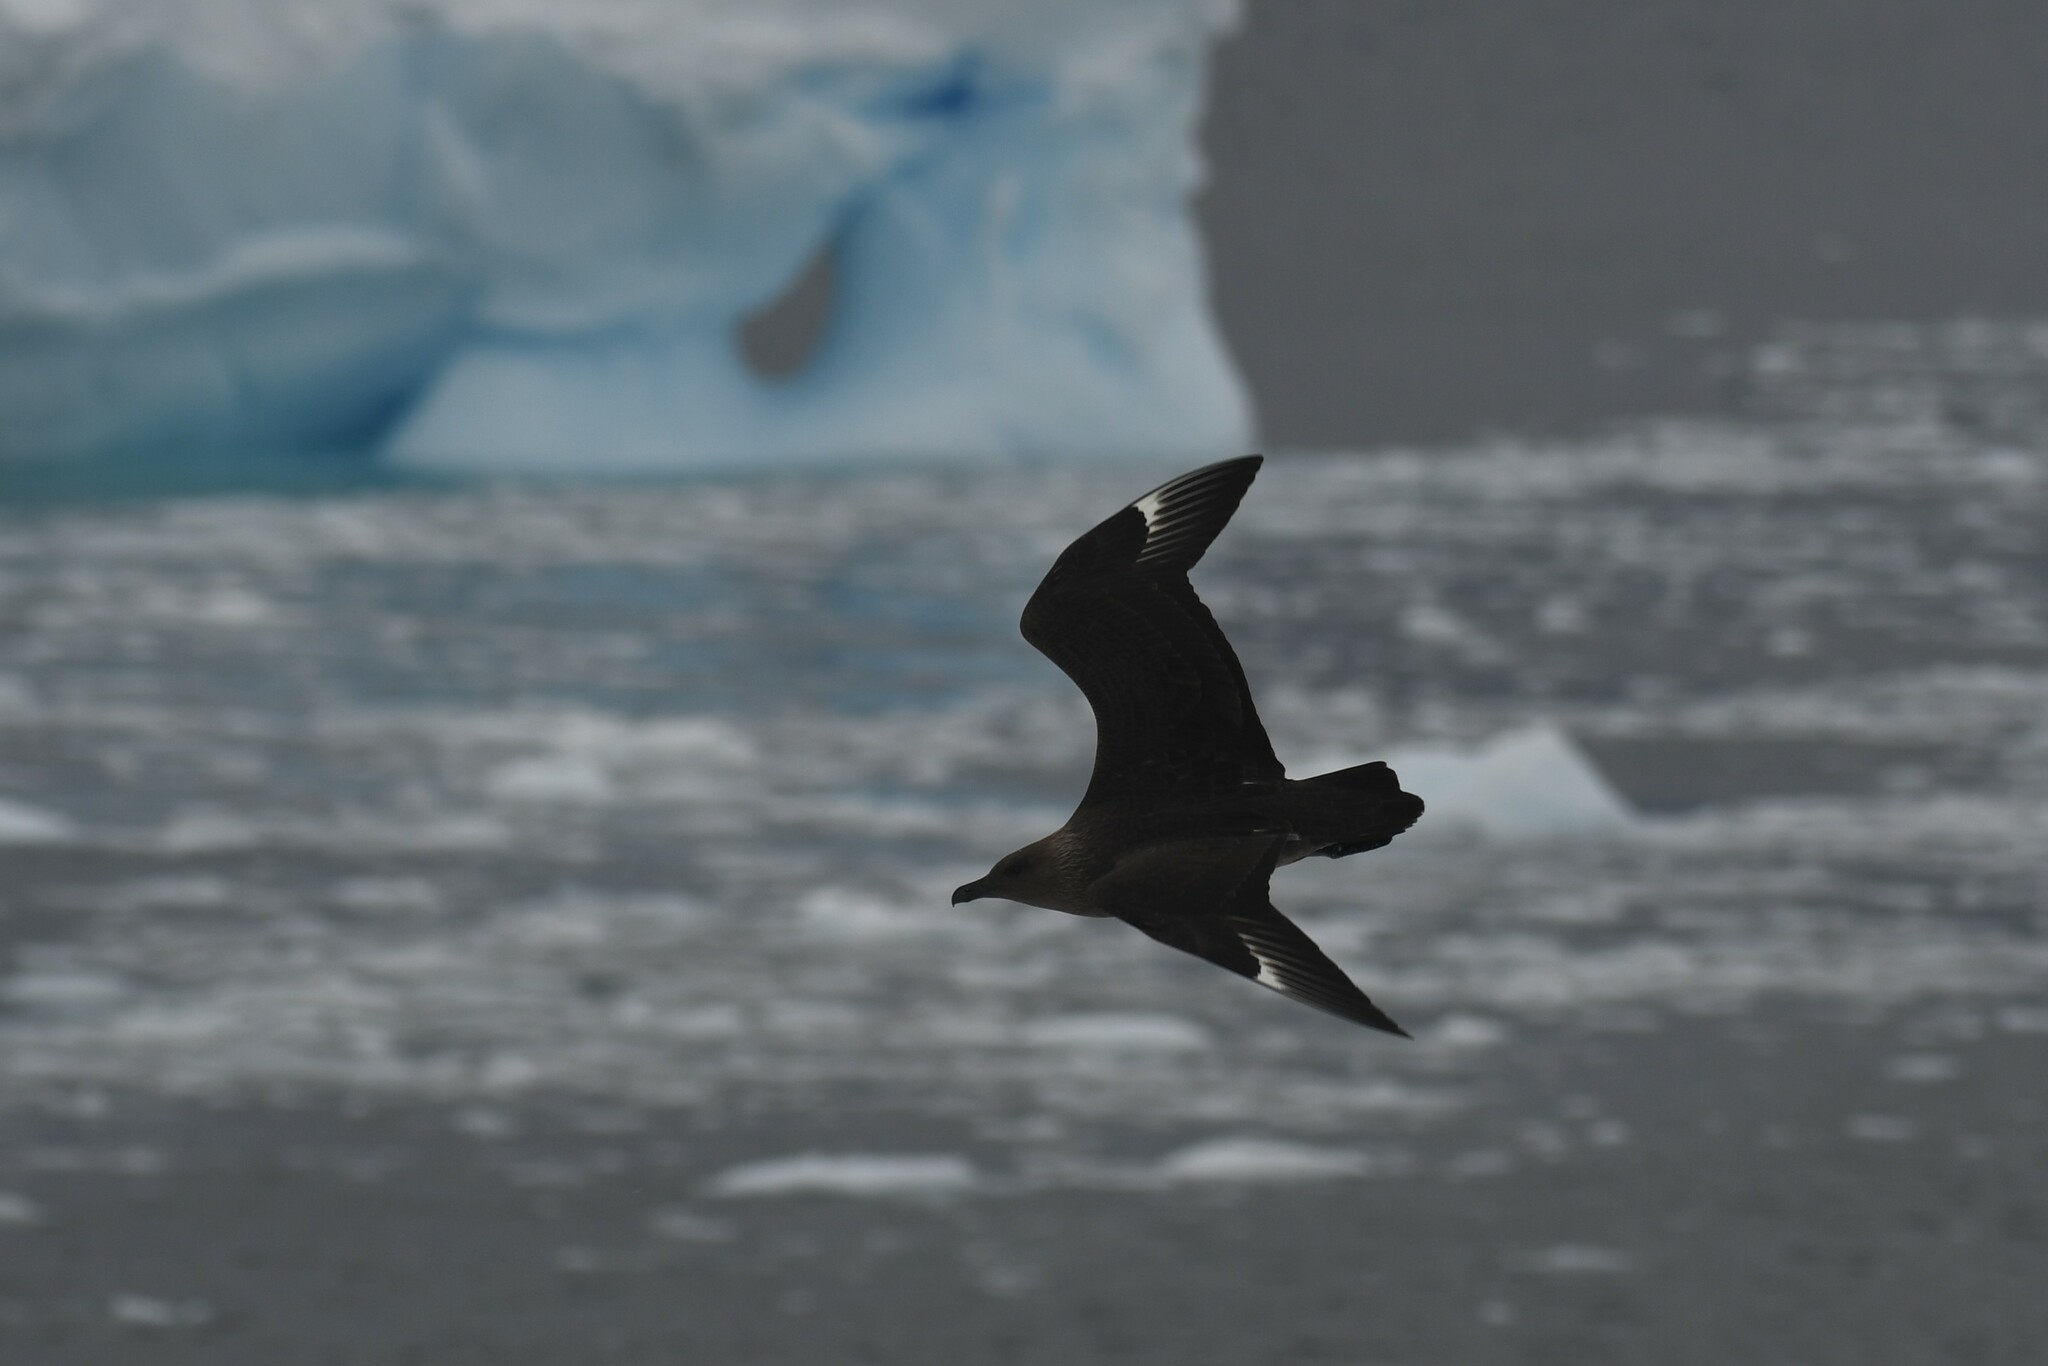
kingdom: Animalia
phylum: Chordata
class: Aves
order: Charadriiformes
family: Stercorariidae
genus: Stercorarius
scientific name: Stercorarius maccormicki
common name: South polar skua
